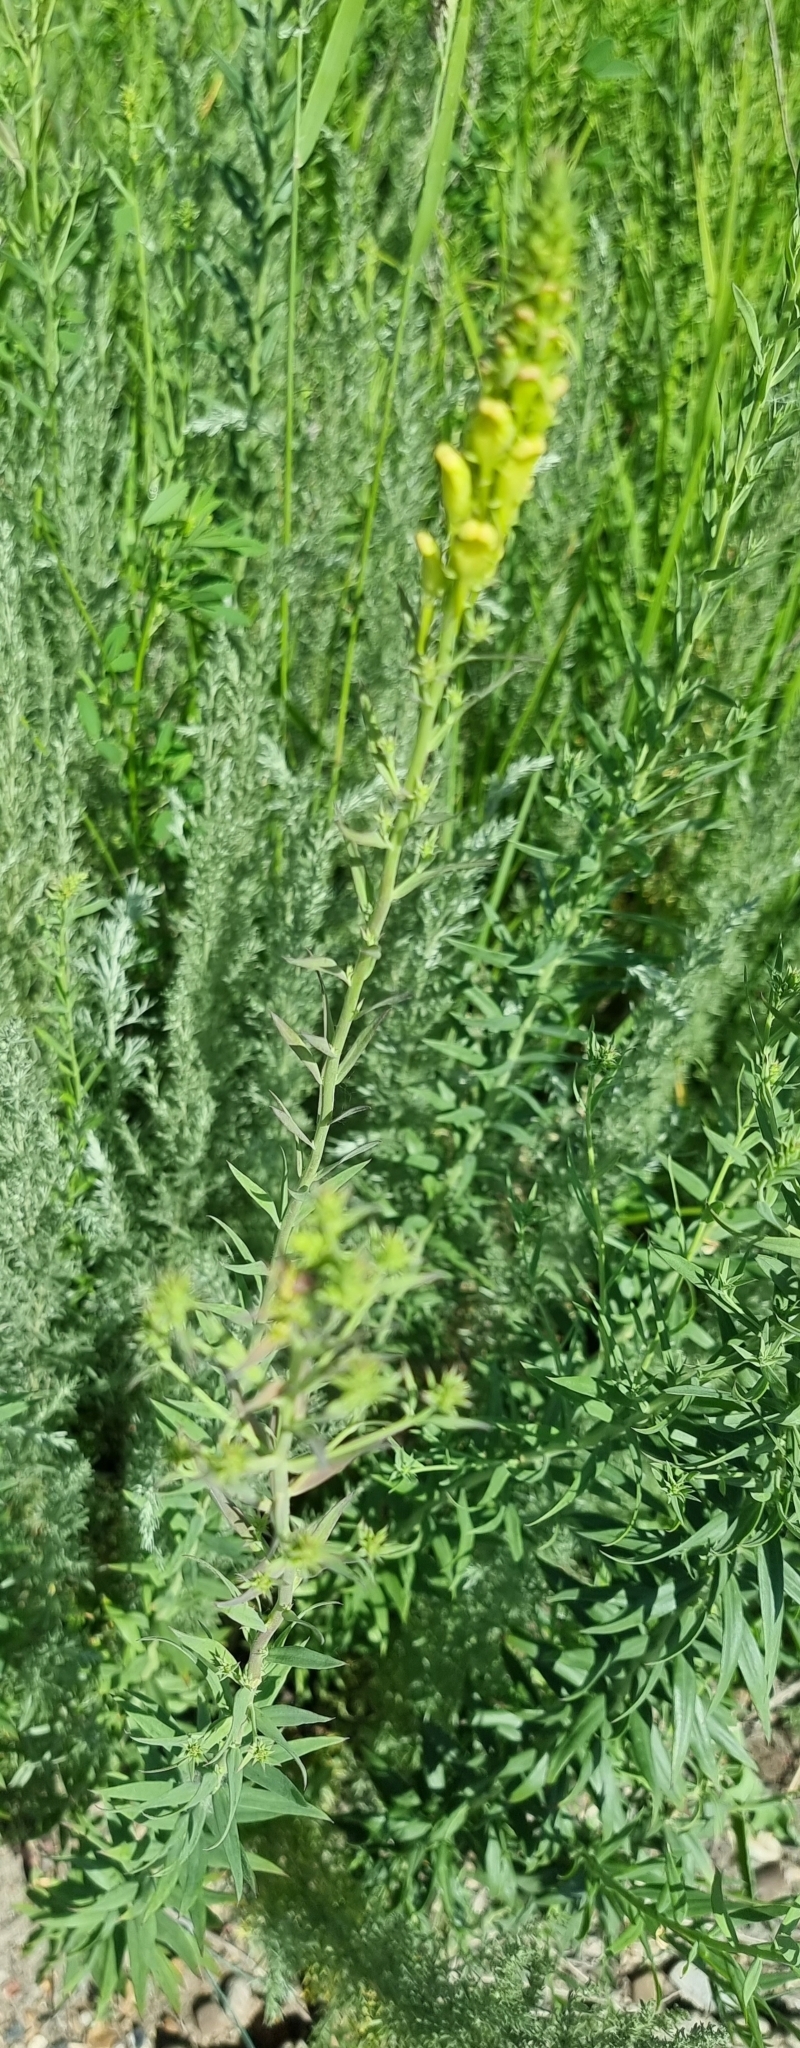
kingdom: Plantae
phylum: Tracheophyta
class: Magnoliopsida
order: Lamiales
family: Plantaginaceae
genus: Linaria
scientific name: Linaria vulgaris
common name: Butter and eggs
